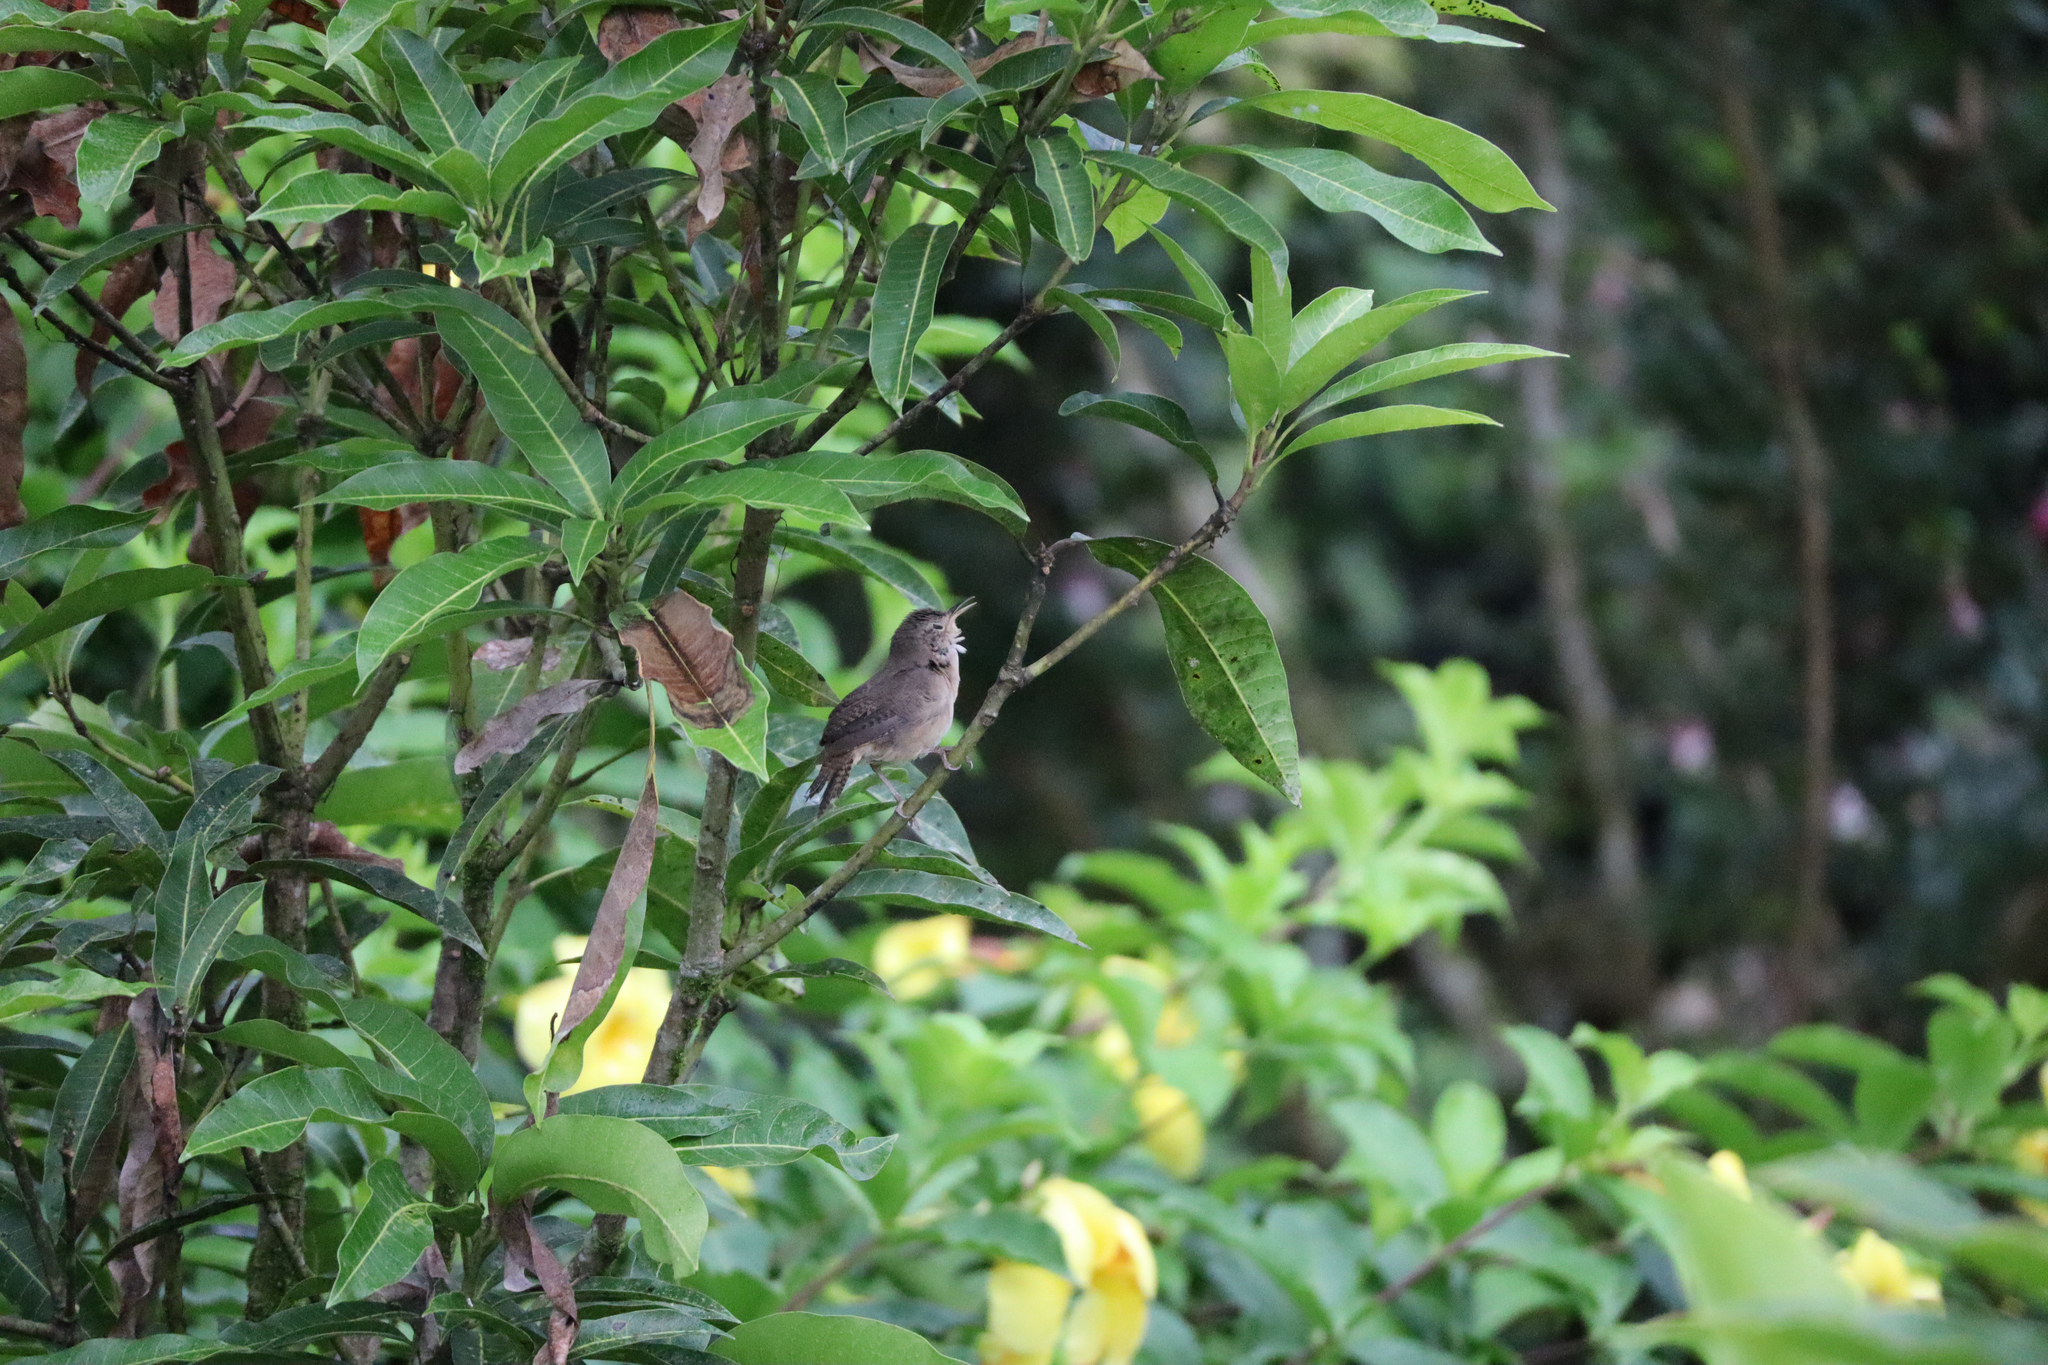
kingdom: Animalia
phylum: Chordata
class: Aves
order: Passeriformes
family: Troglodytidae
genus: Troglodytes
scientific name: Troglodytes aedon
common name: House wren
